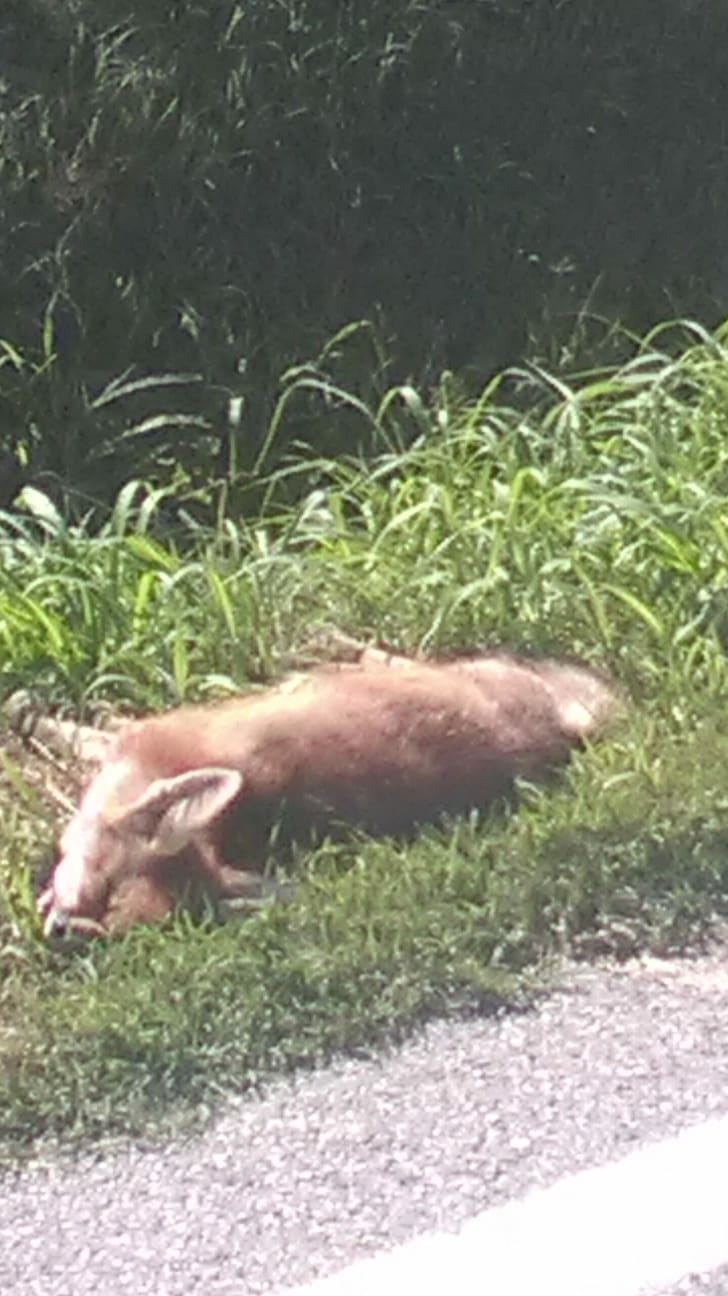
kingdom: Animalia
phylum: Chordata
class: Mammalia
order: Carnivora
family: Canidae
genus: Vulpes
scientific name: Vulpes vulpes
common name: Red fox
